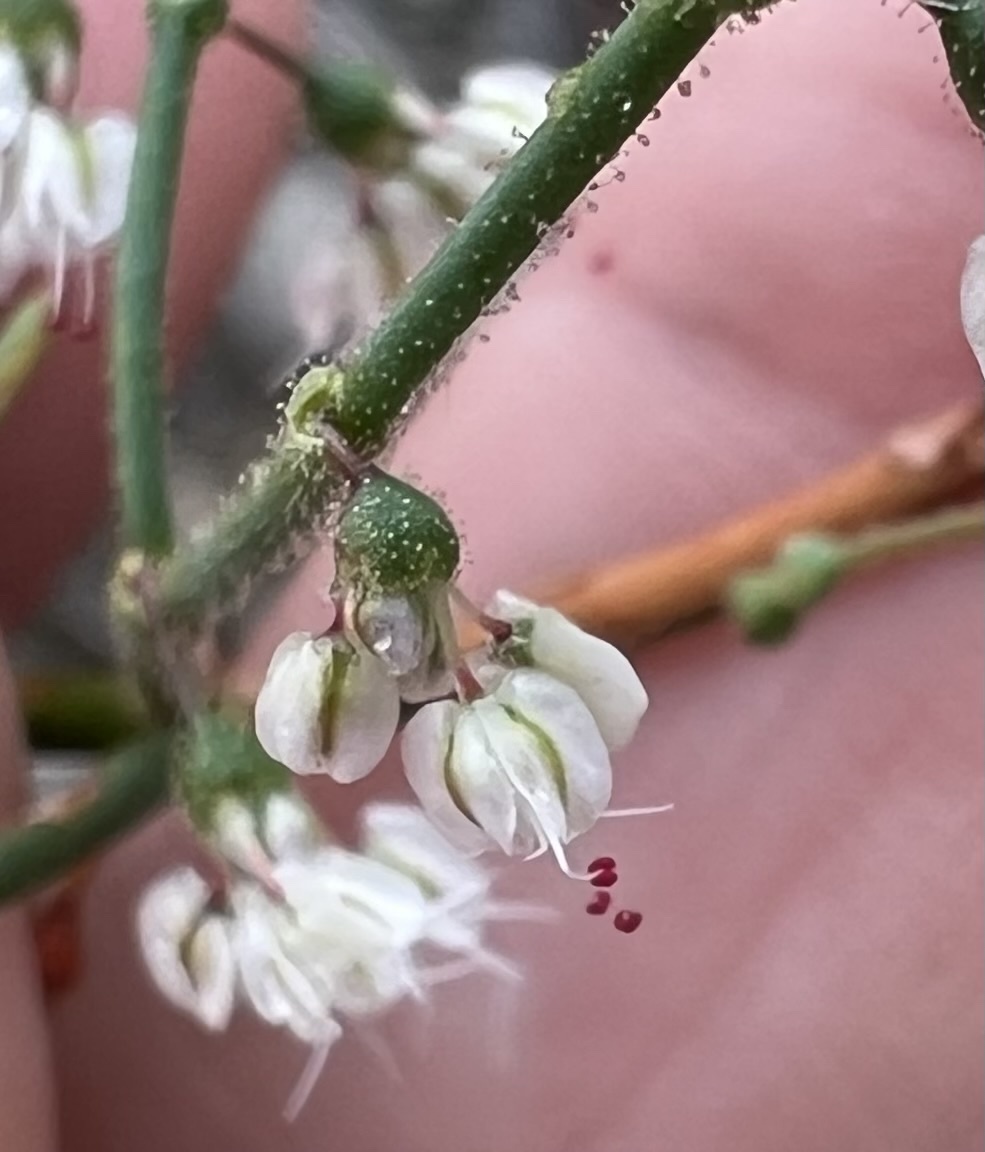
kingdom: Plantae
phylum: Tracheophyta
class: Magnoliopsida
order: Caryophyllales
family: Polygonaceae
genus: Eriogonum
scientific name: Eriogonum brachypodum
